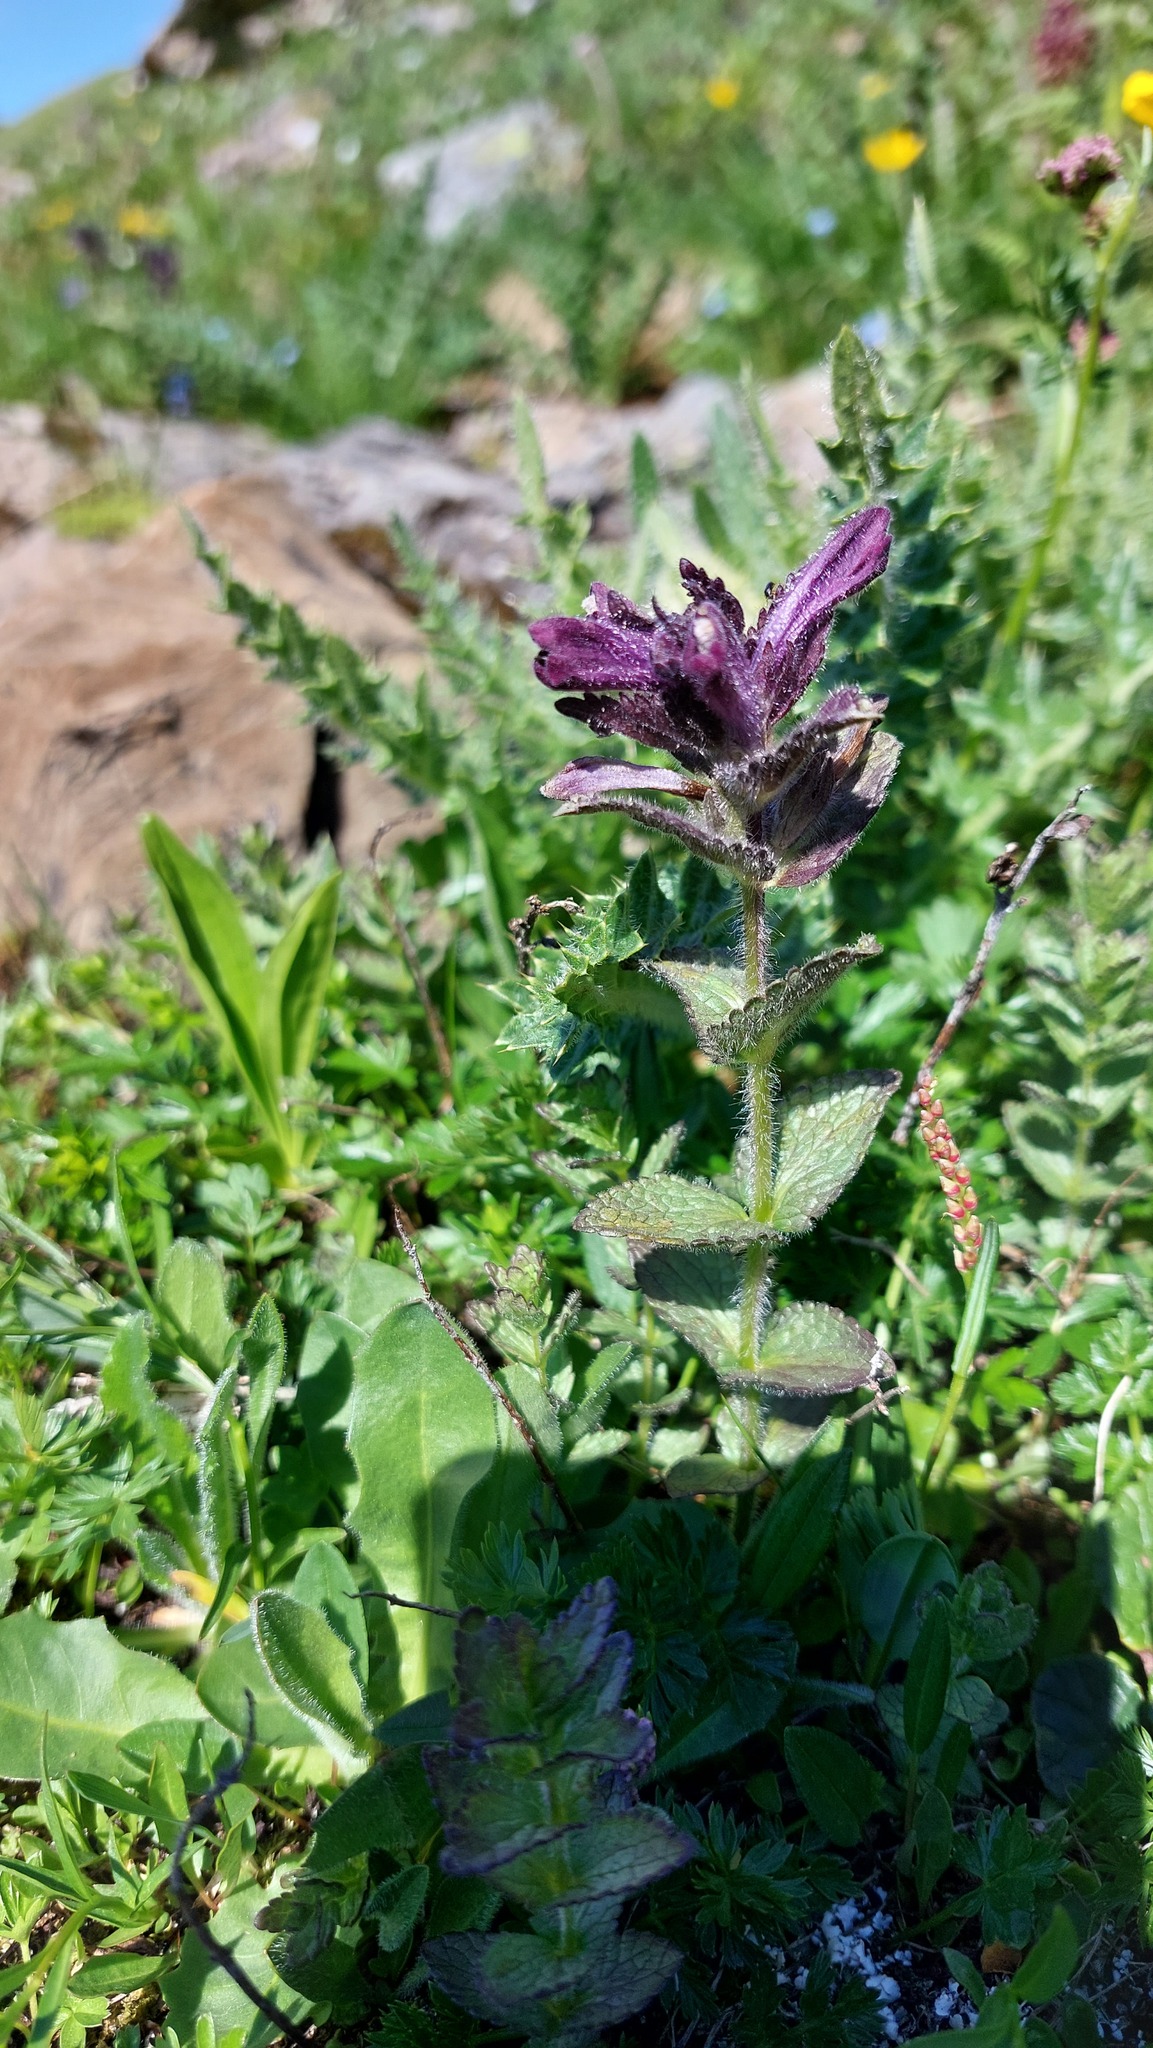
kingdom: Plantae
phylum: Tracheophyta
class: Magnoliopsida
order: Lamiales
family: Orobanchaceae
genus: Bartsia
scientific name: Bartsia alpina
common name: Alpine bartsia
